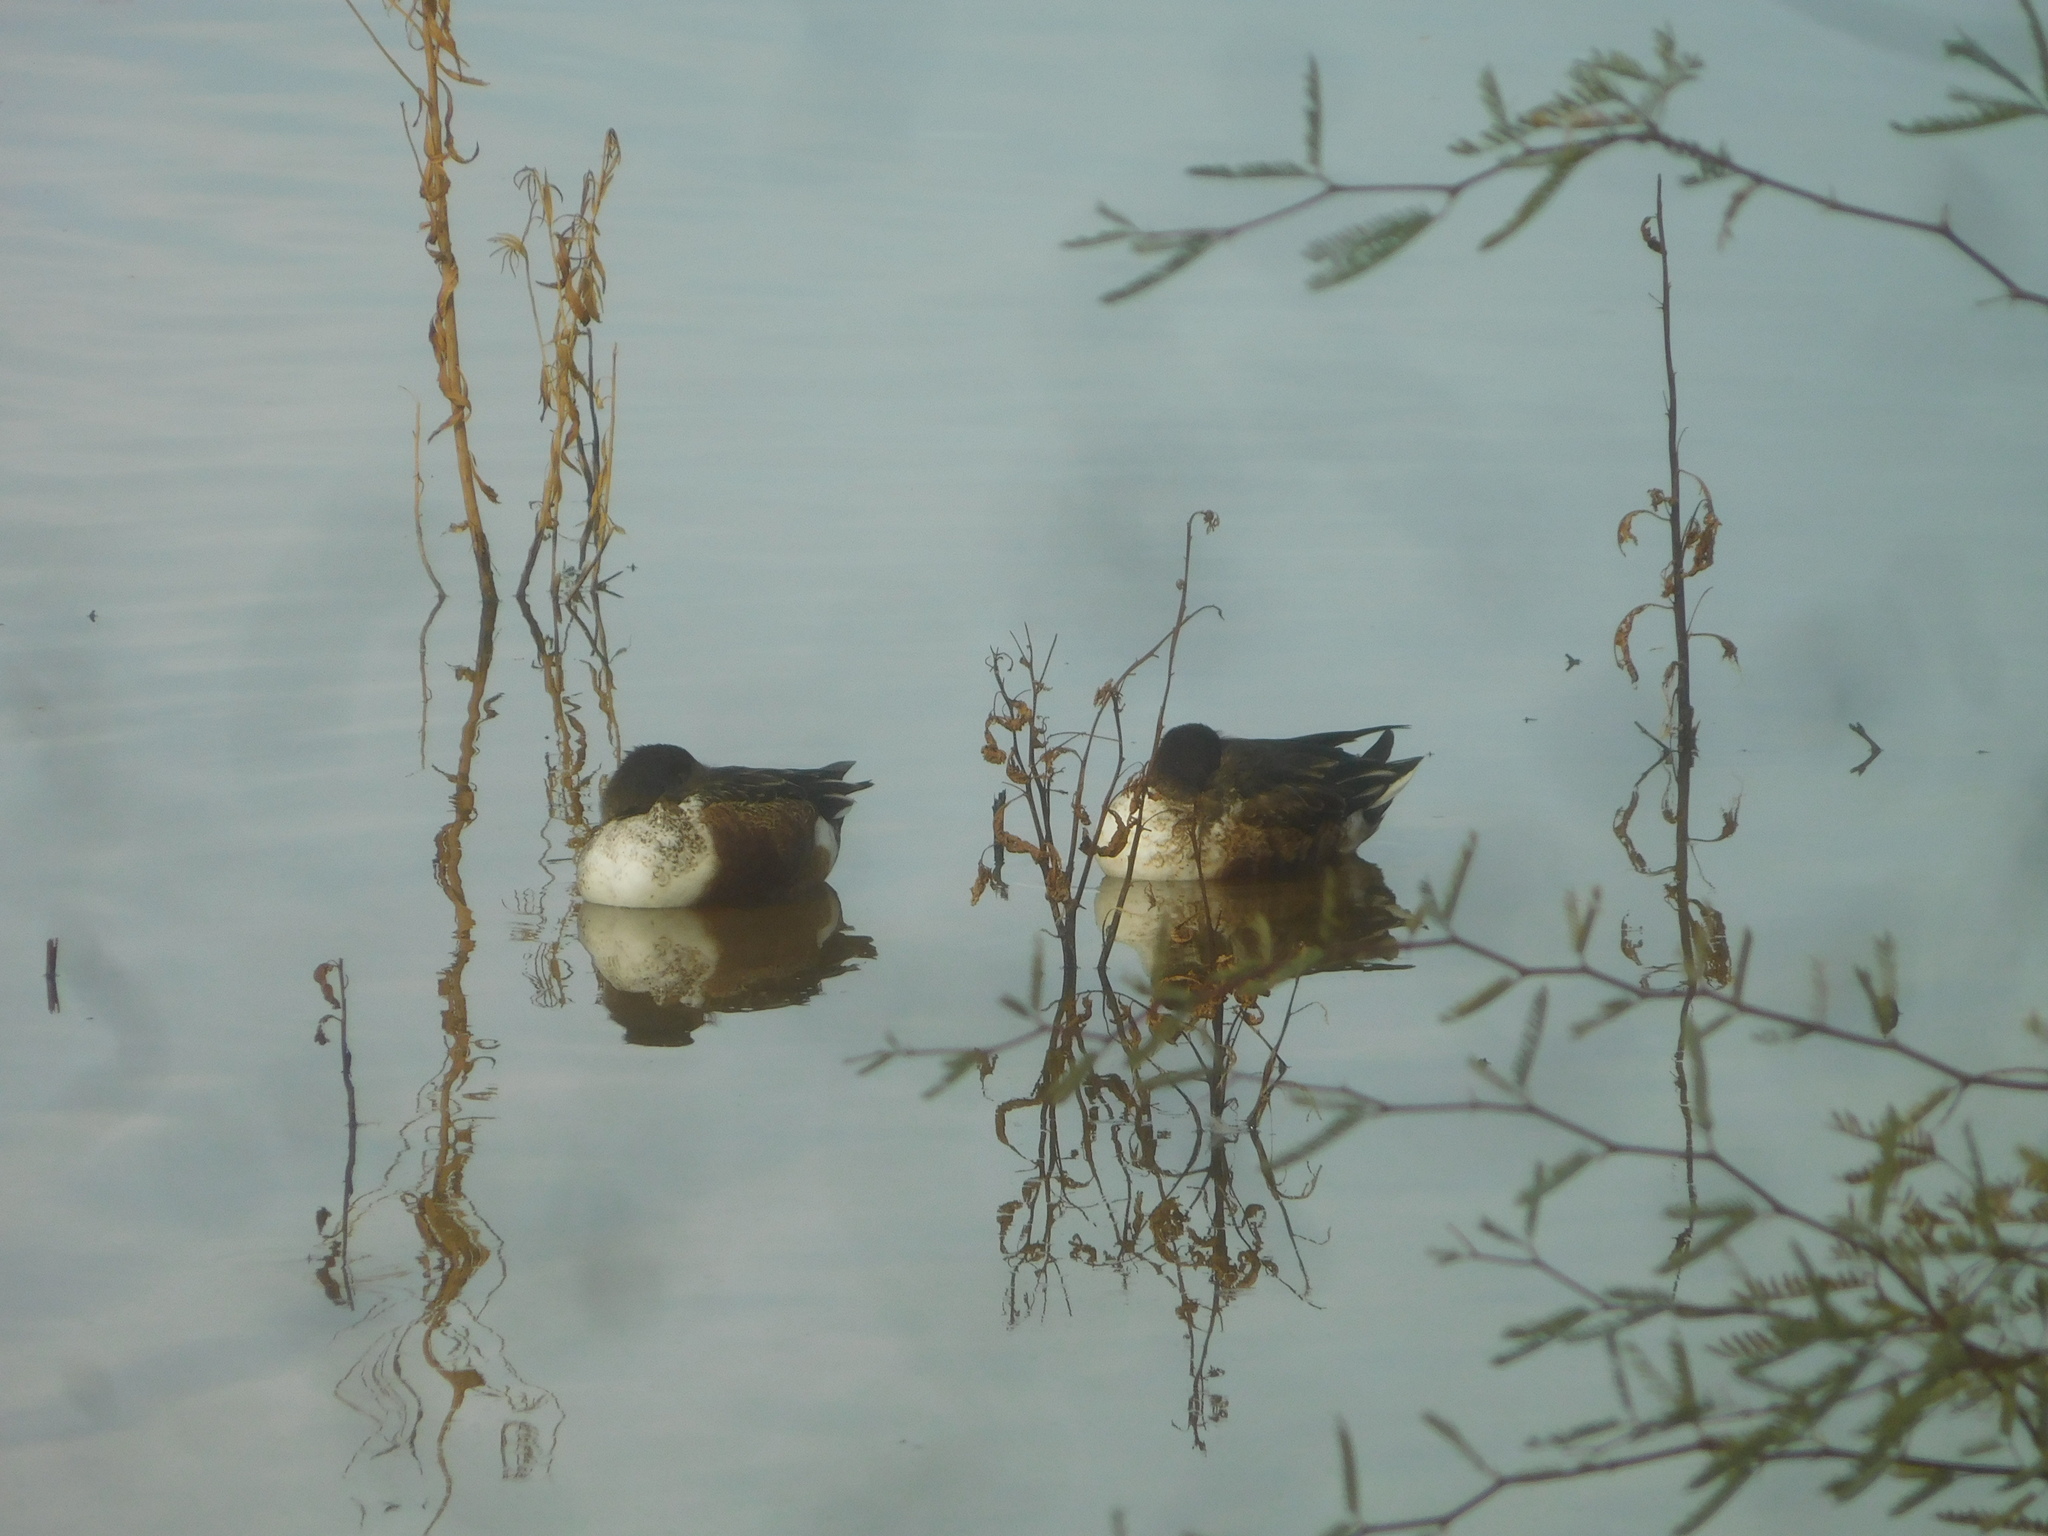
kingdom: Animalia
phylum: Chordata
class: Aves
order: Anseriformes
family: Anatidae
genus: Spatula
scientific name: Spatula clypeata
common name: Northern shoveler
